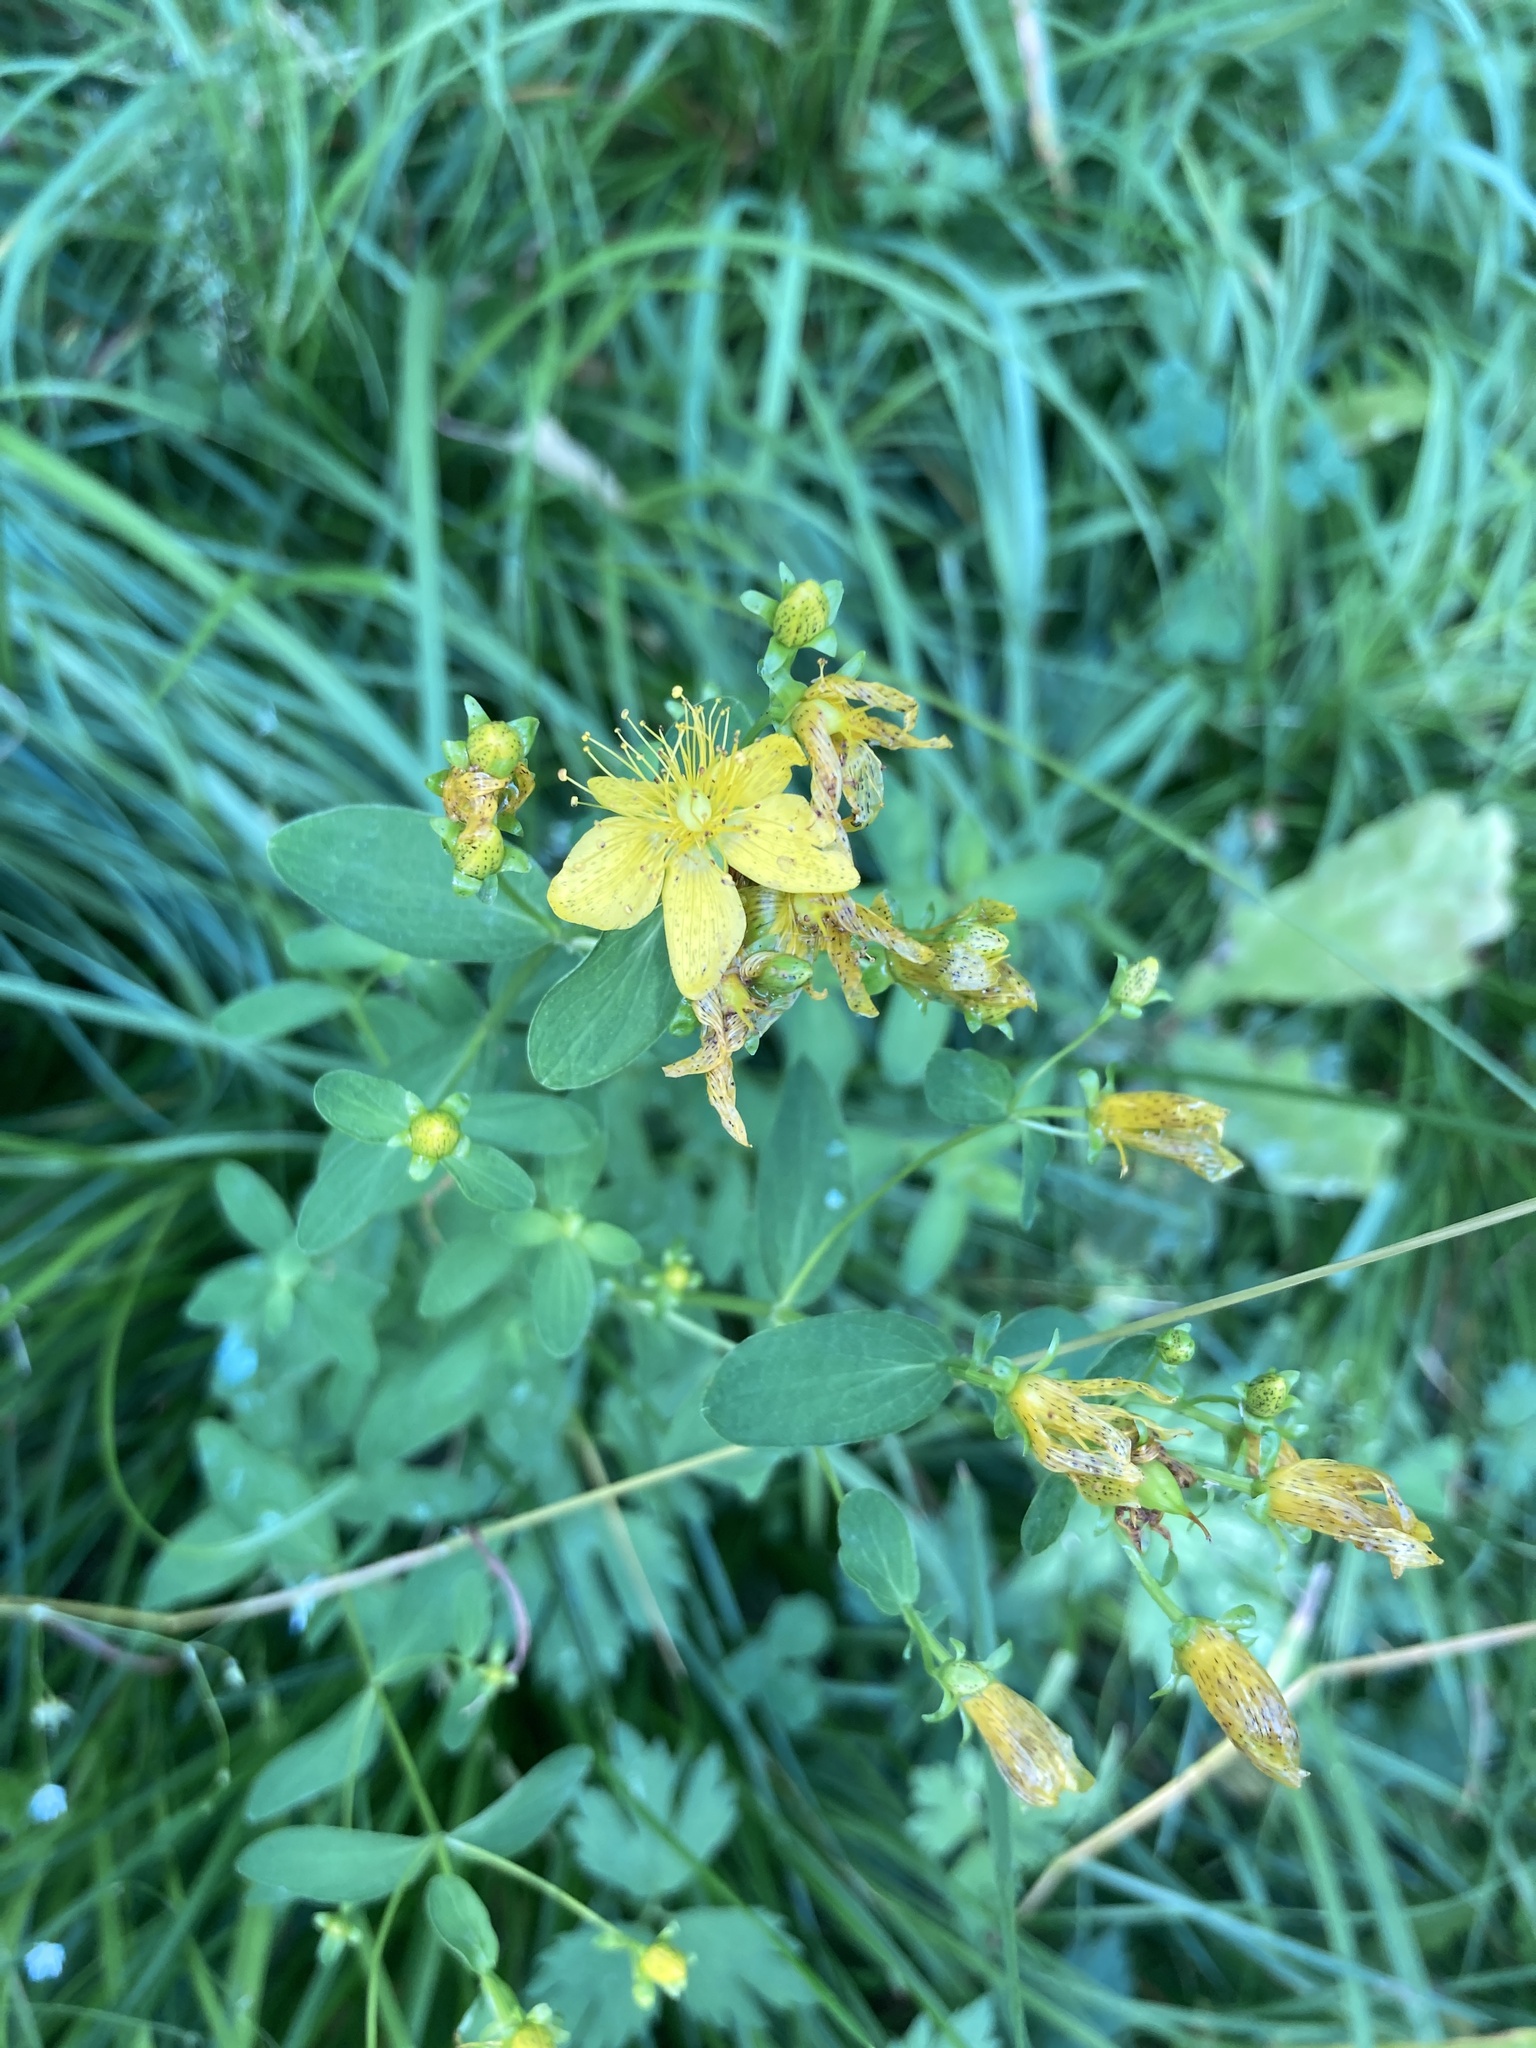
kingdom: Plantae
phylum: Tracheophyta
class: Magnoliopsida
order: Malpighiales
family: Hypericaceae
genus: Hypericum
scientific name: Hypericum maculatum
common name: Imperforate st. john's-wort
